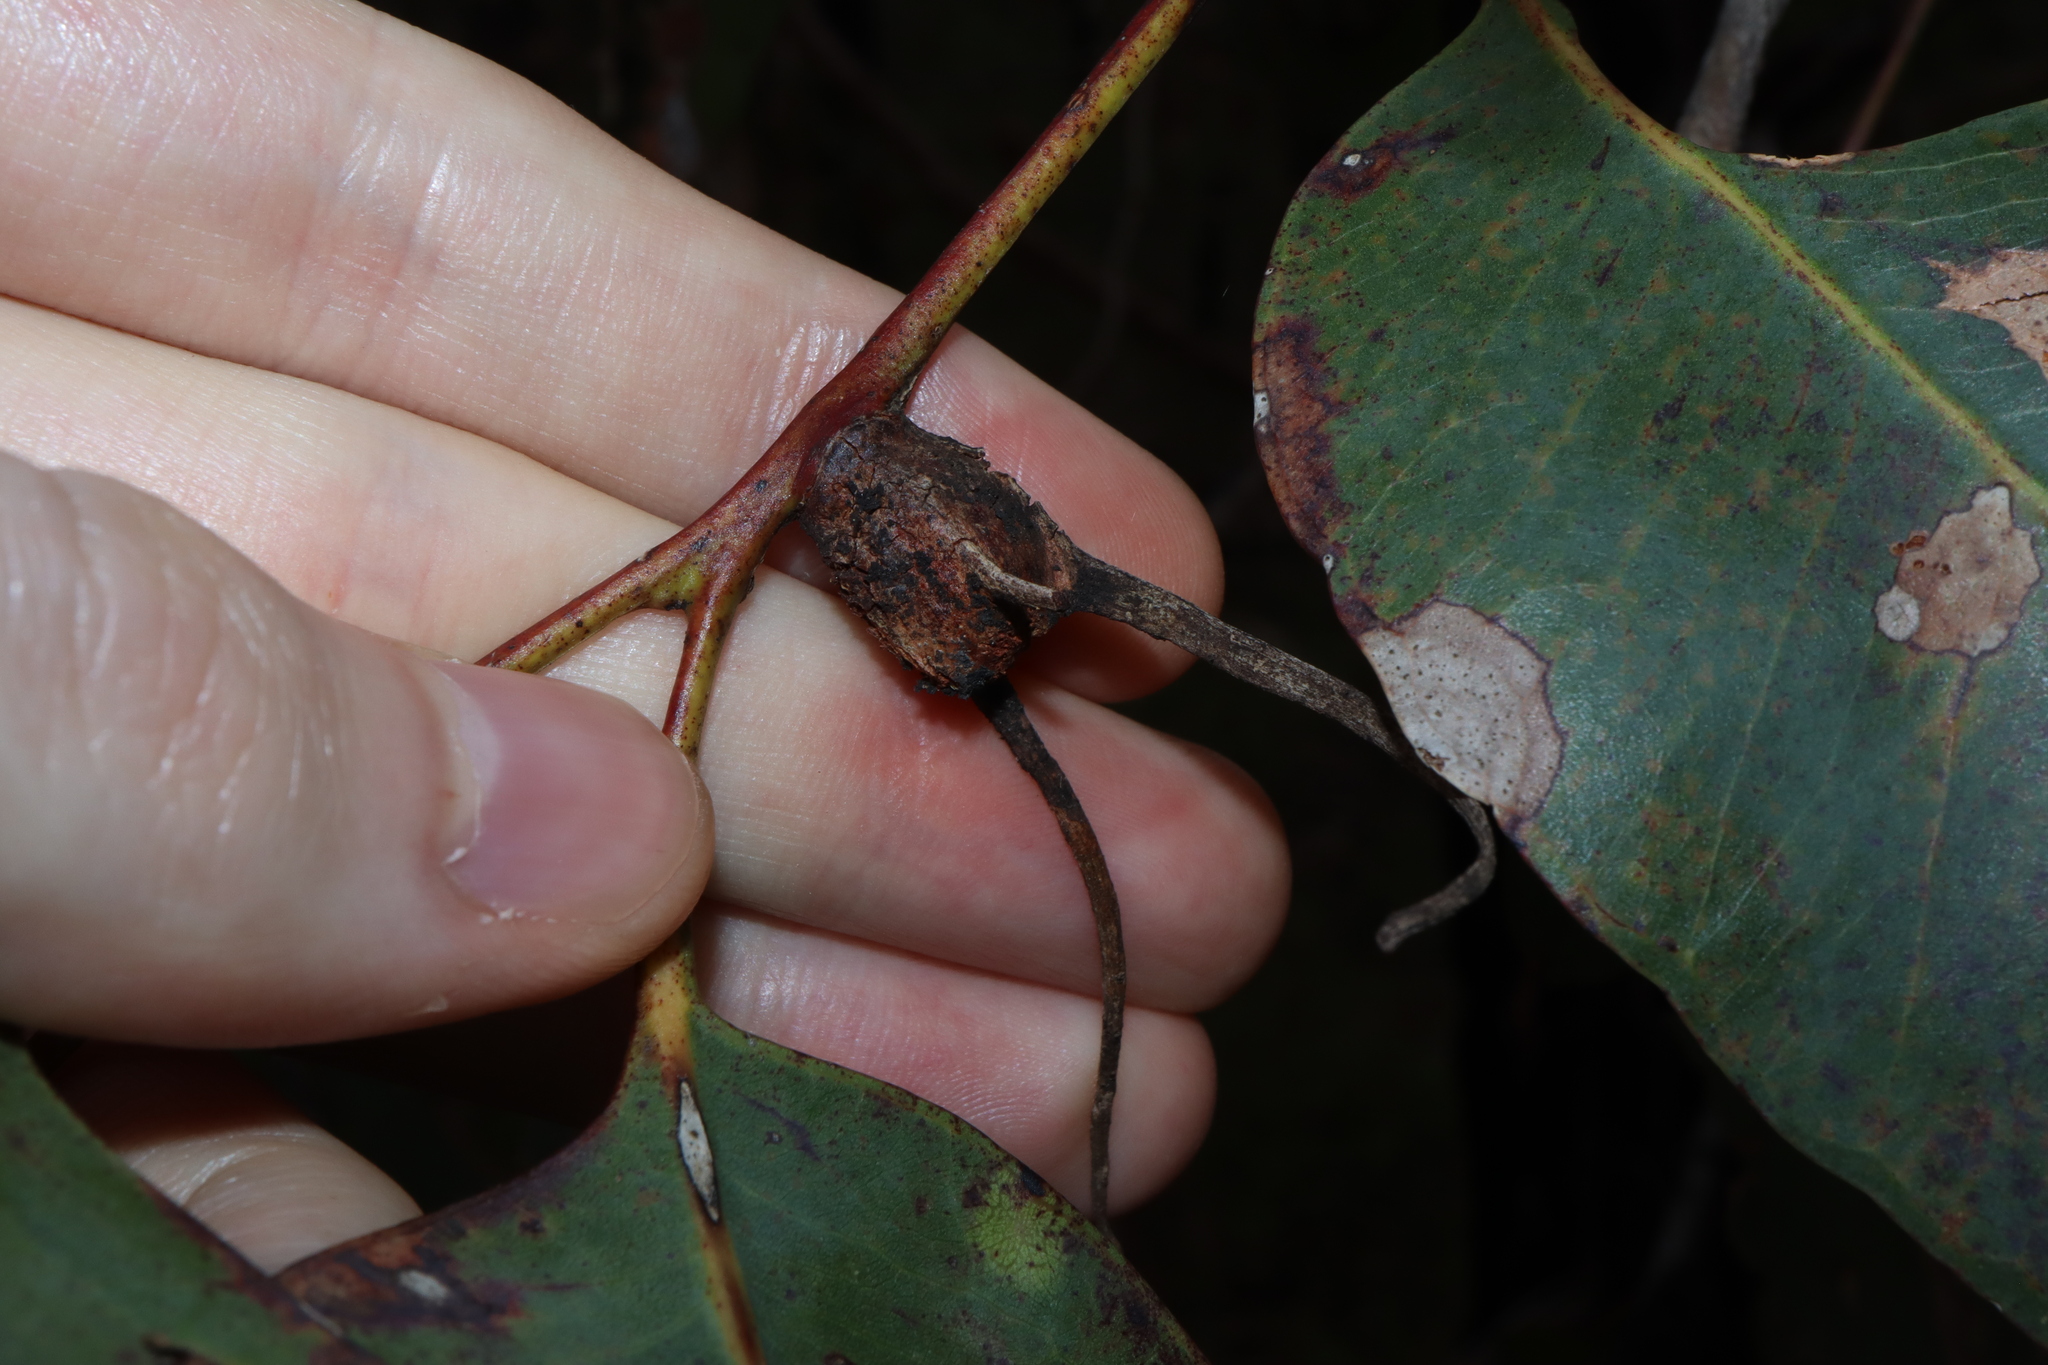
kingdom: Animalia
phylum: Arthropoda
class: Insecta
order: Hemiptera
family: Eriococcidae
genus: Apiomorpha
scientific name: Apiomorpha munita
